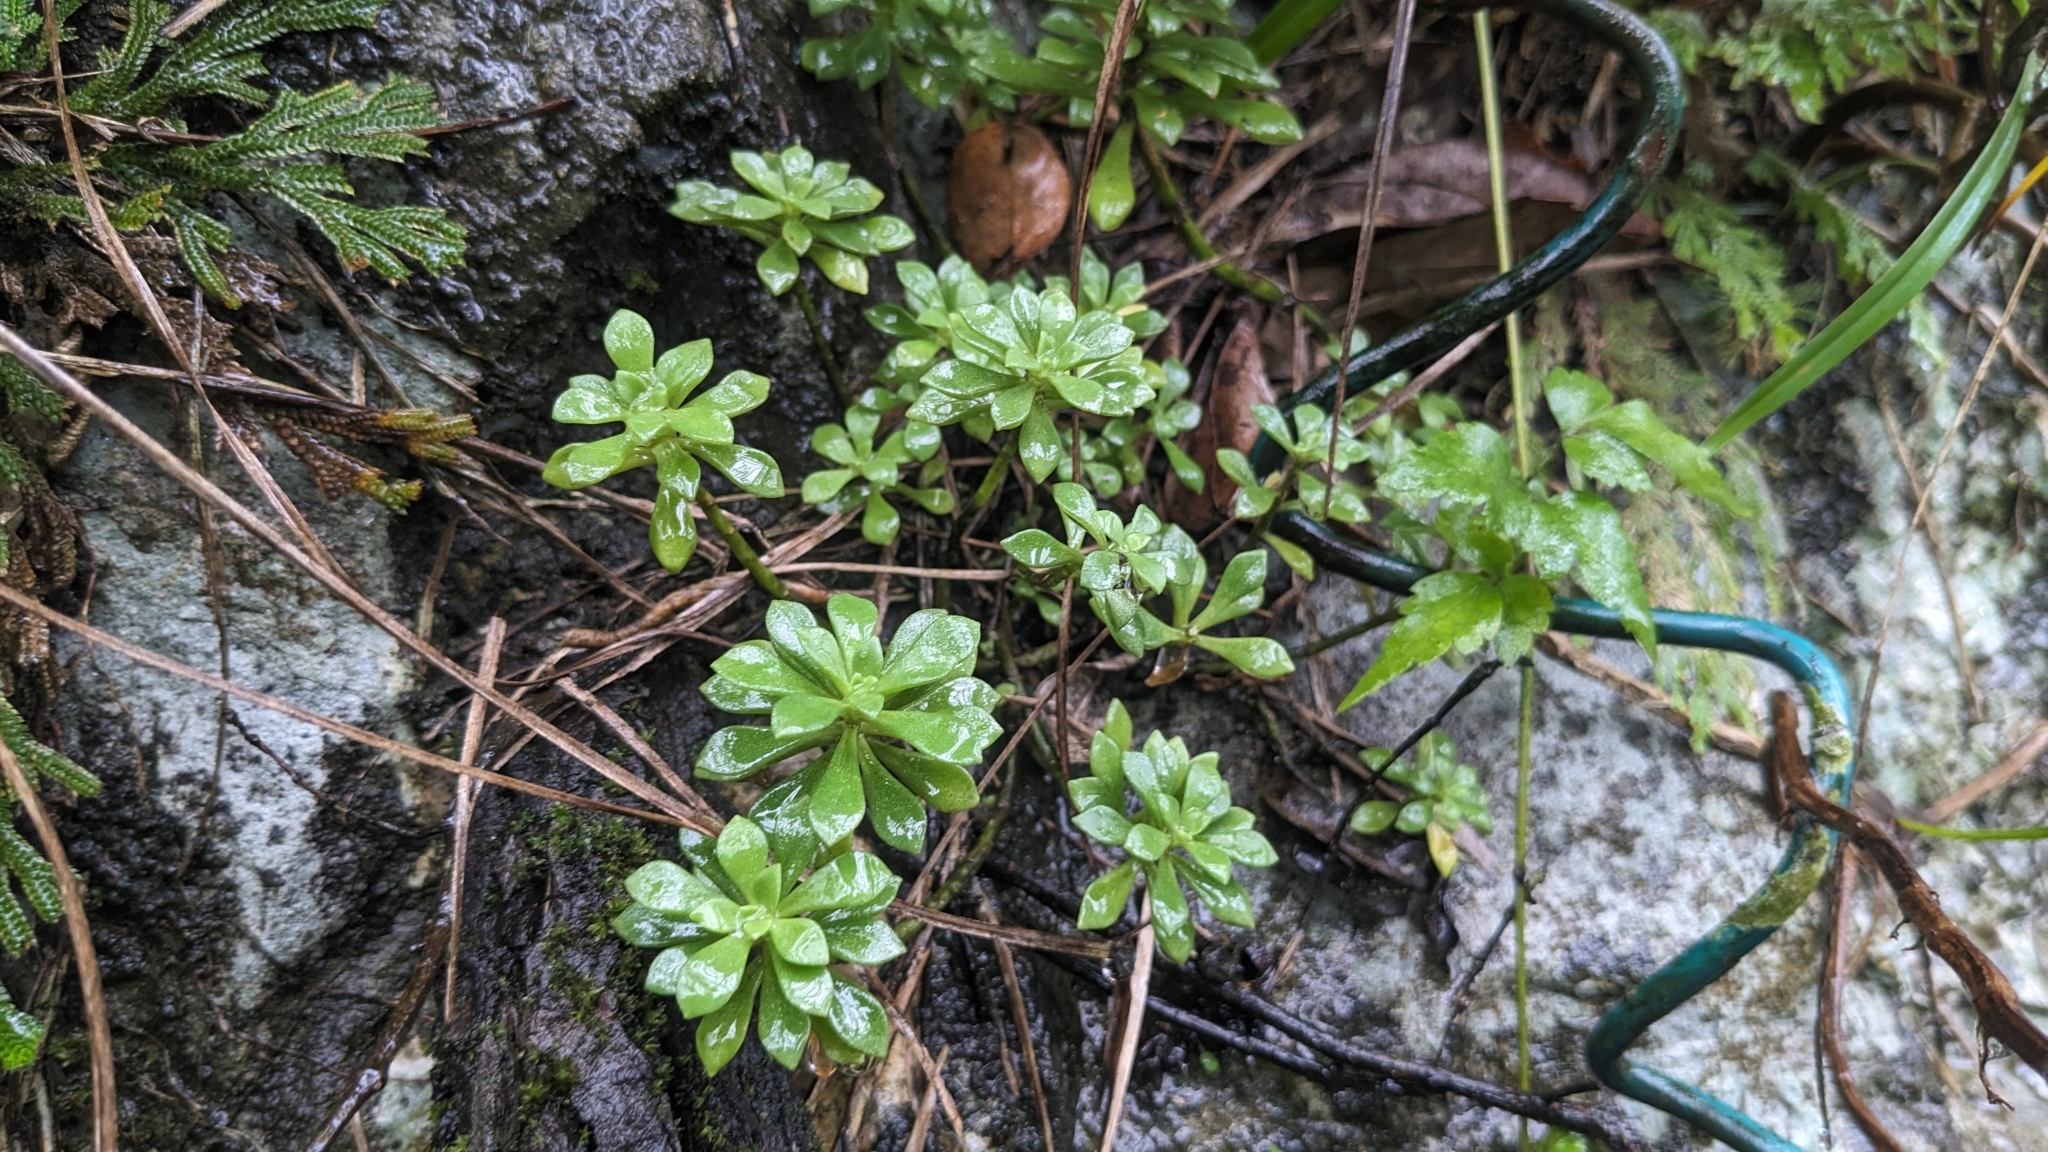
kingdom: Plantae
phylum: Tracheophyta
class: Magnoliopsida
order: Saxifragales
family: Crassulaceae
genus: Sedum
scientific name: Sedum sekiteiense
